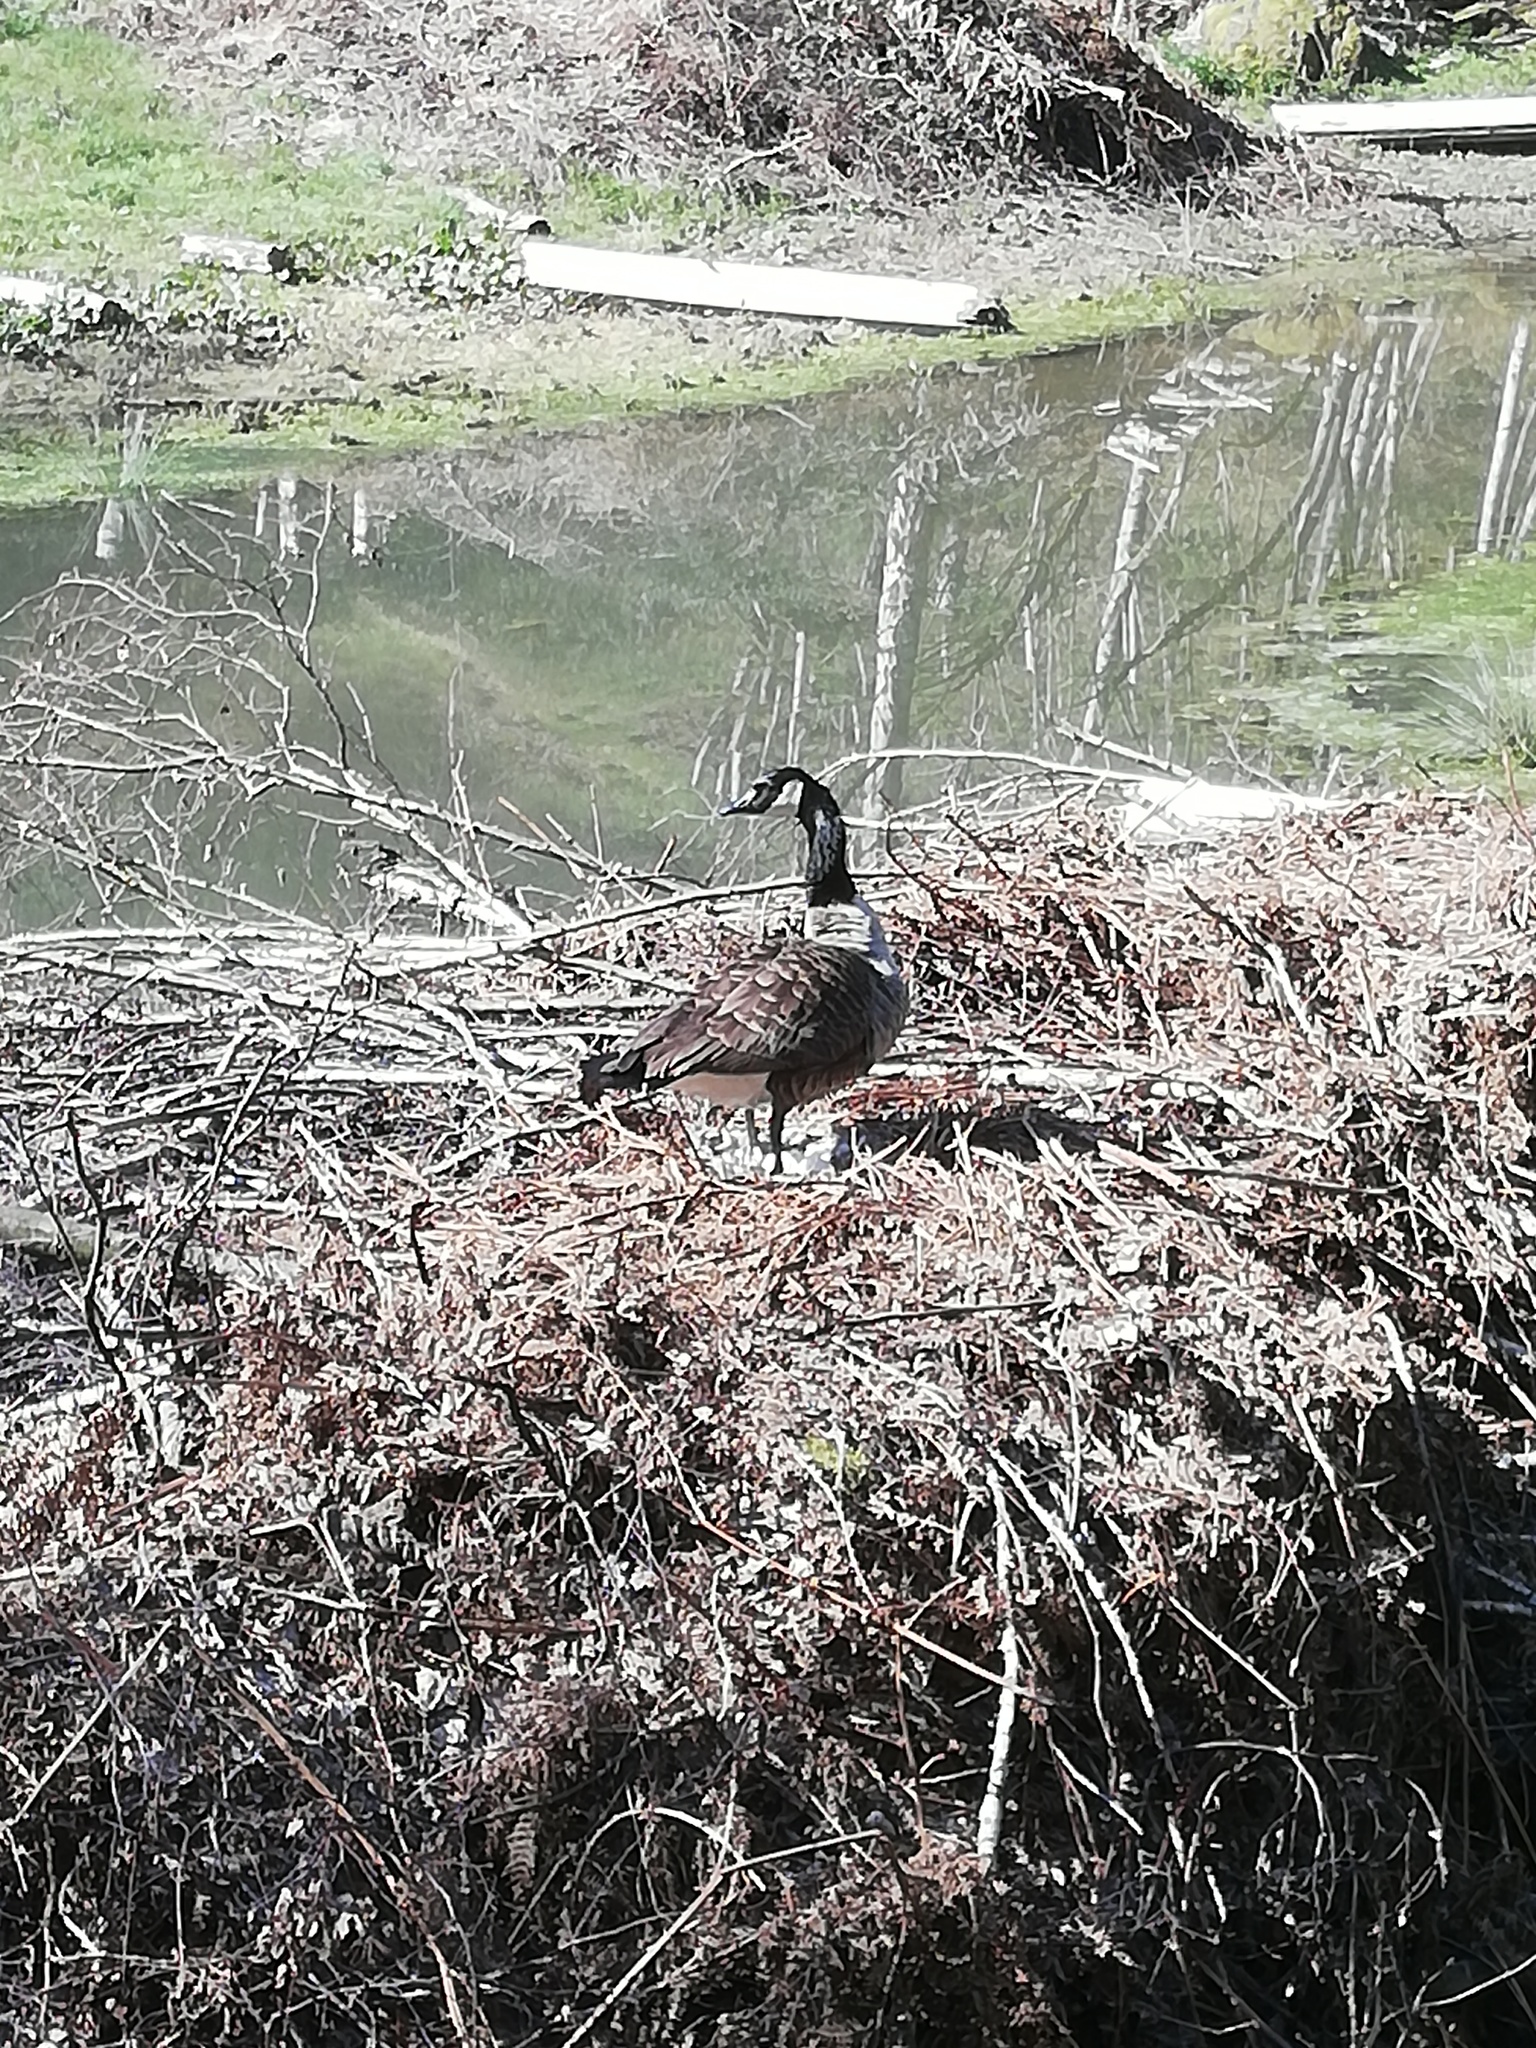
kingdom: Animalia
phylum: Chordata
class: Aves
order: Anseriformes
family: Anatidae
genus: Branta
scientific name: Branta canadensis
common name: Canada goose
